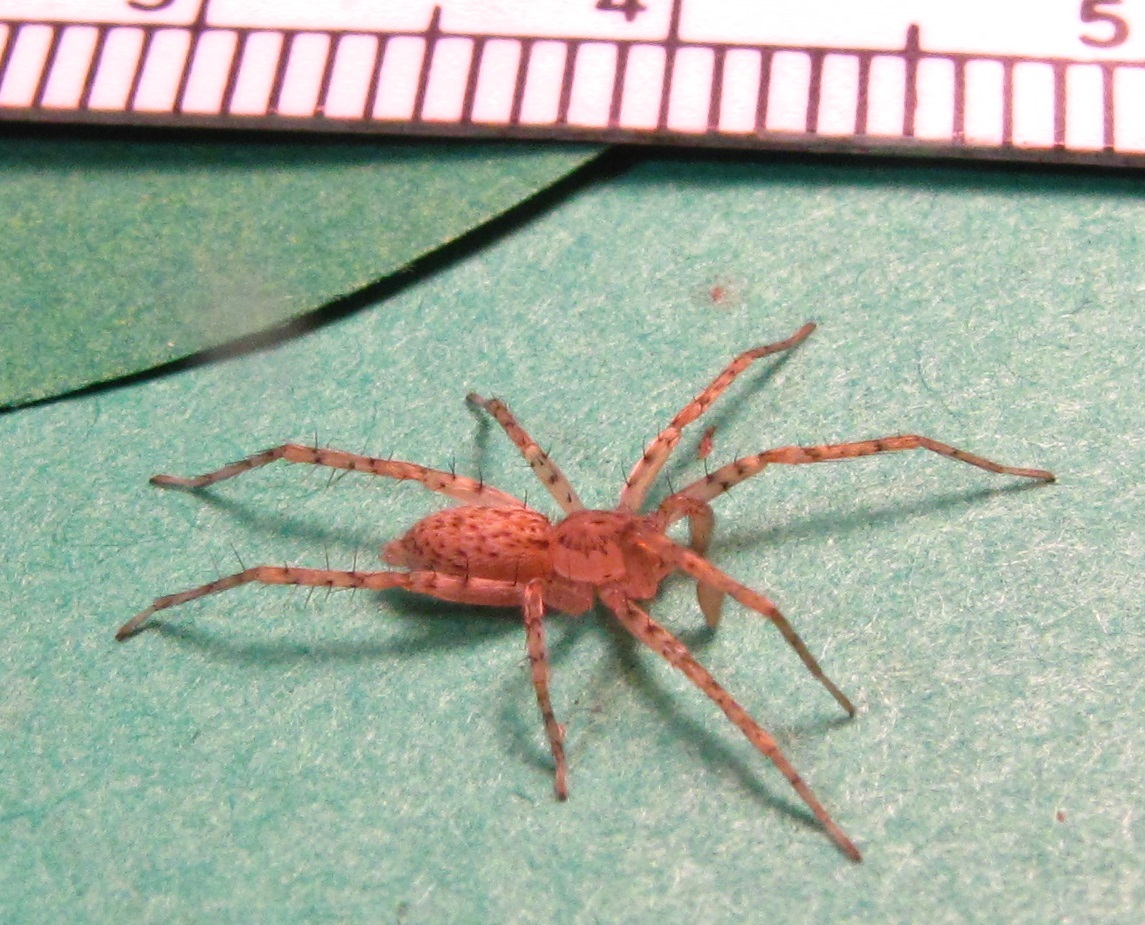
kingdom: Animalia
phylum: Arthropoda
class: Arachnida
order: Araneae
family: Anyphaenidae
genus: Anyphaena
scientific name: Anyphaena fraterna
